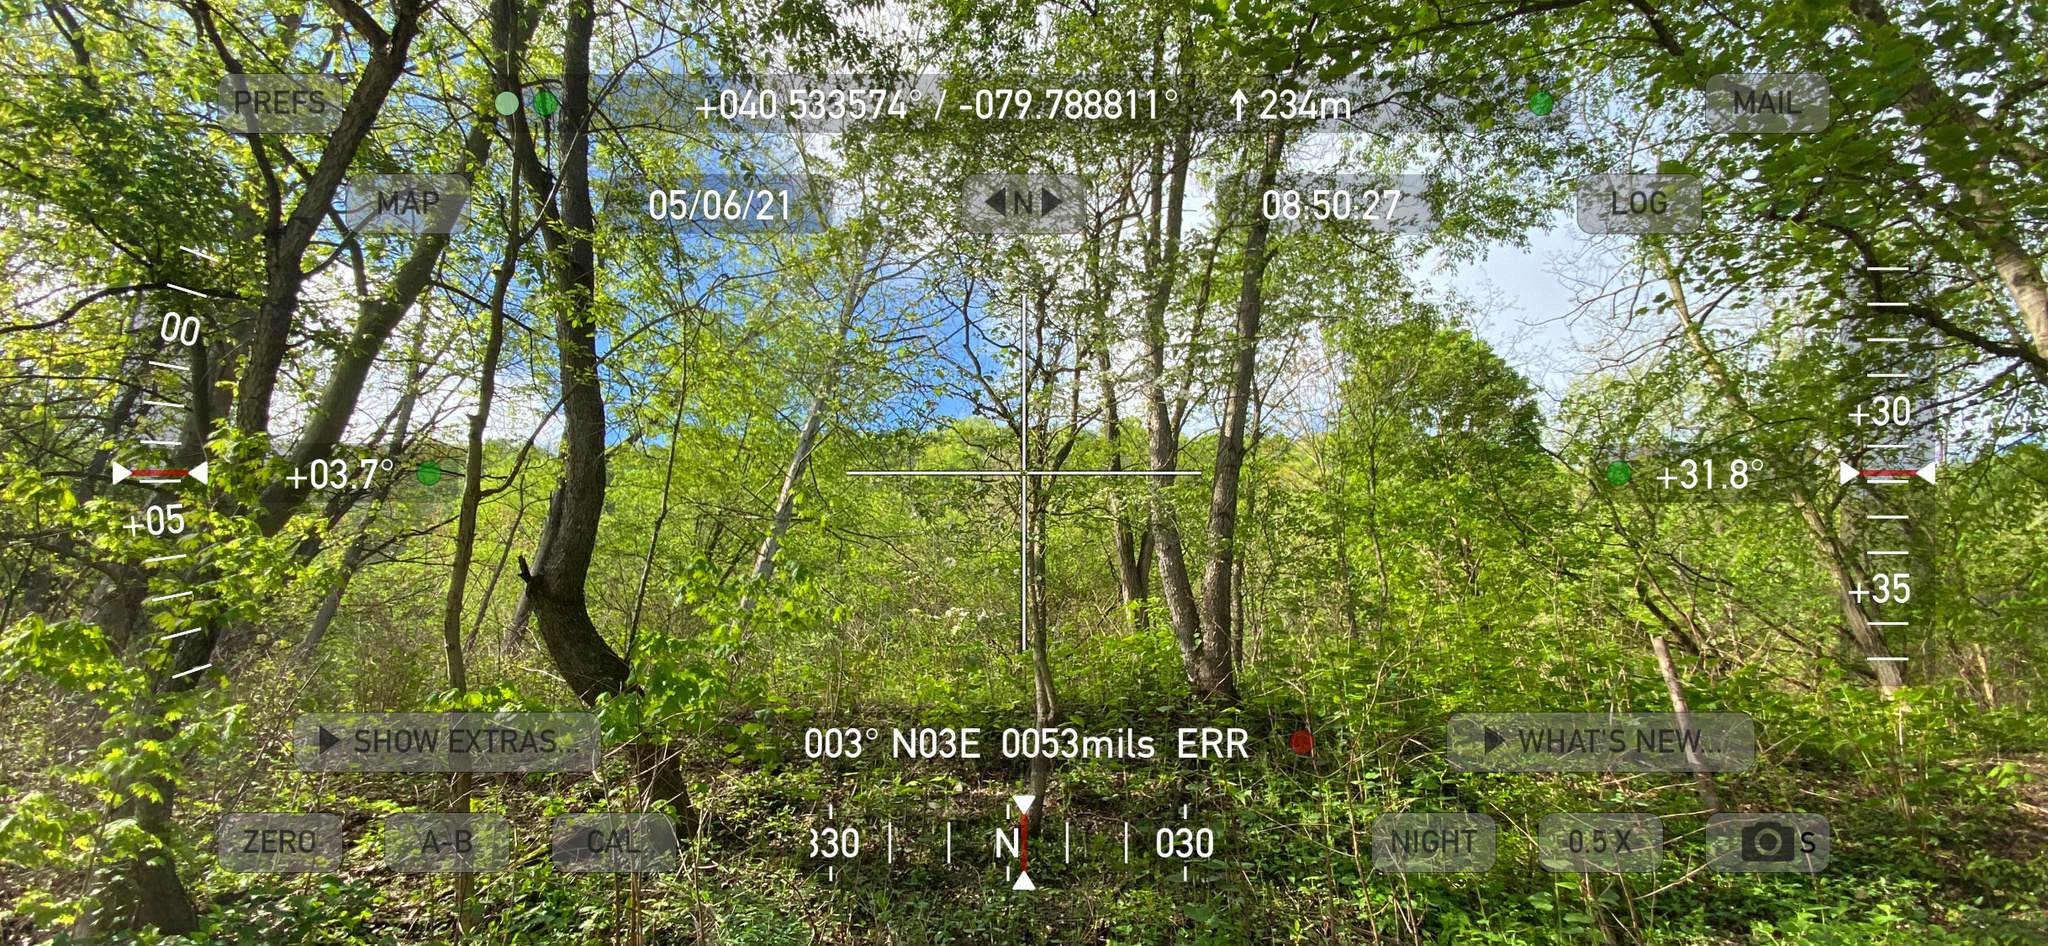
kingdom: Plantae
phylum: Tracheophyta
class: Magnoliopsida
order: Cornales
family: Cornaceae
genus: Cornus
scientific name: Cornus florida
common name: Flowering dogwood
